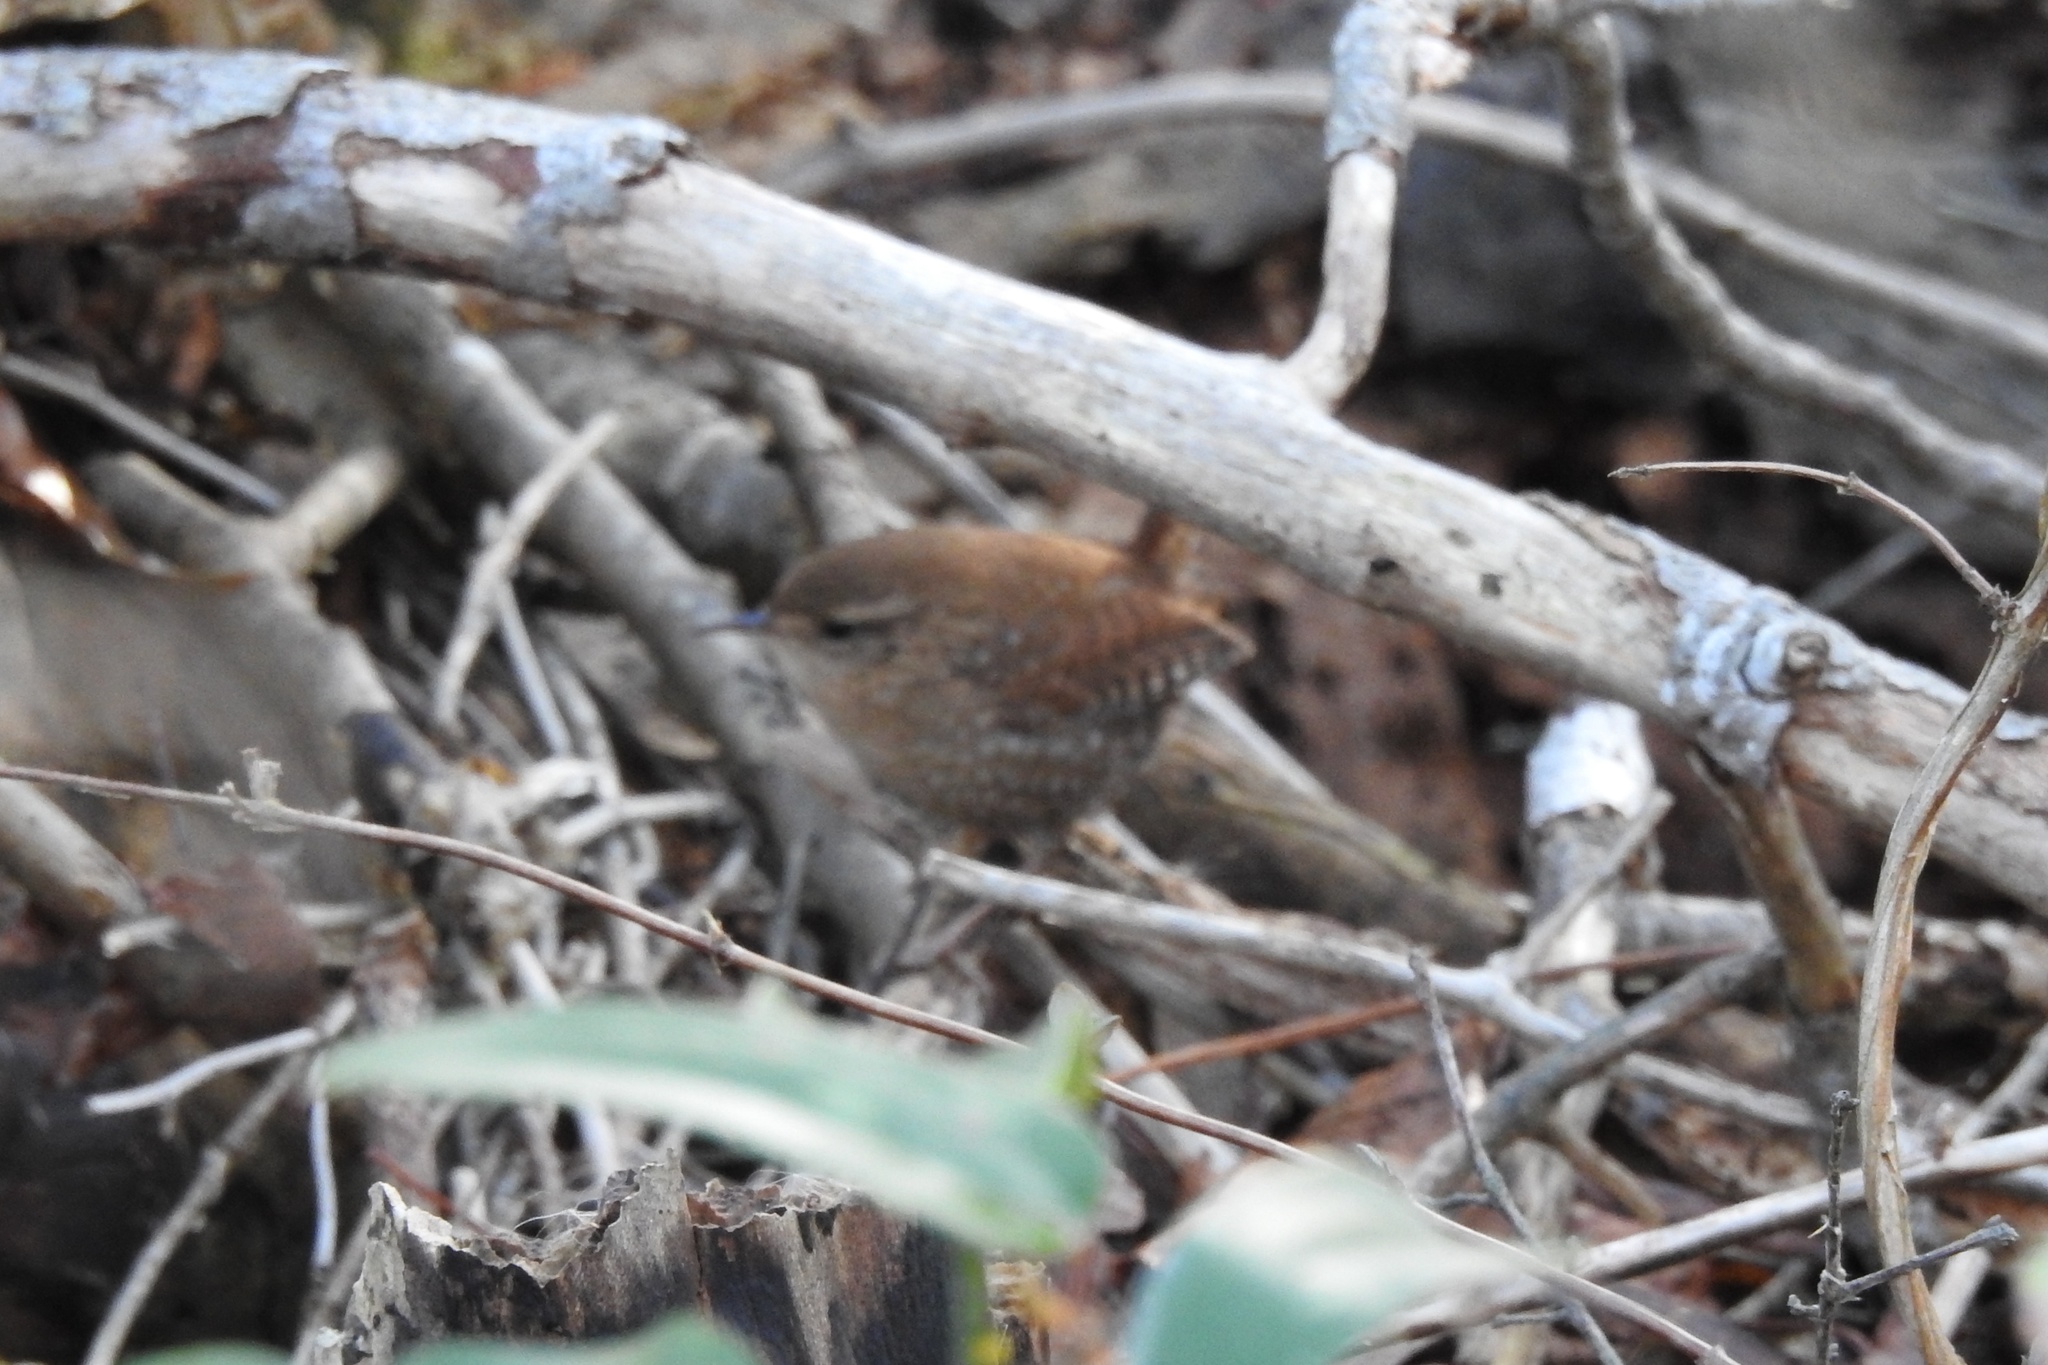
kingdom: Animalia
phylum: Chordata
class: Aves
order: Passeriformes
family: Troglodytidae
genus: Troglodytes
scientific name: Troglodytes hiemalis
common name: Winter wren
